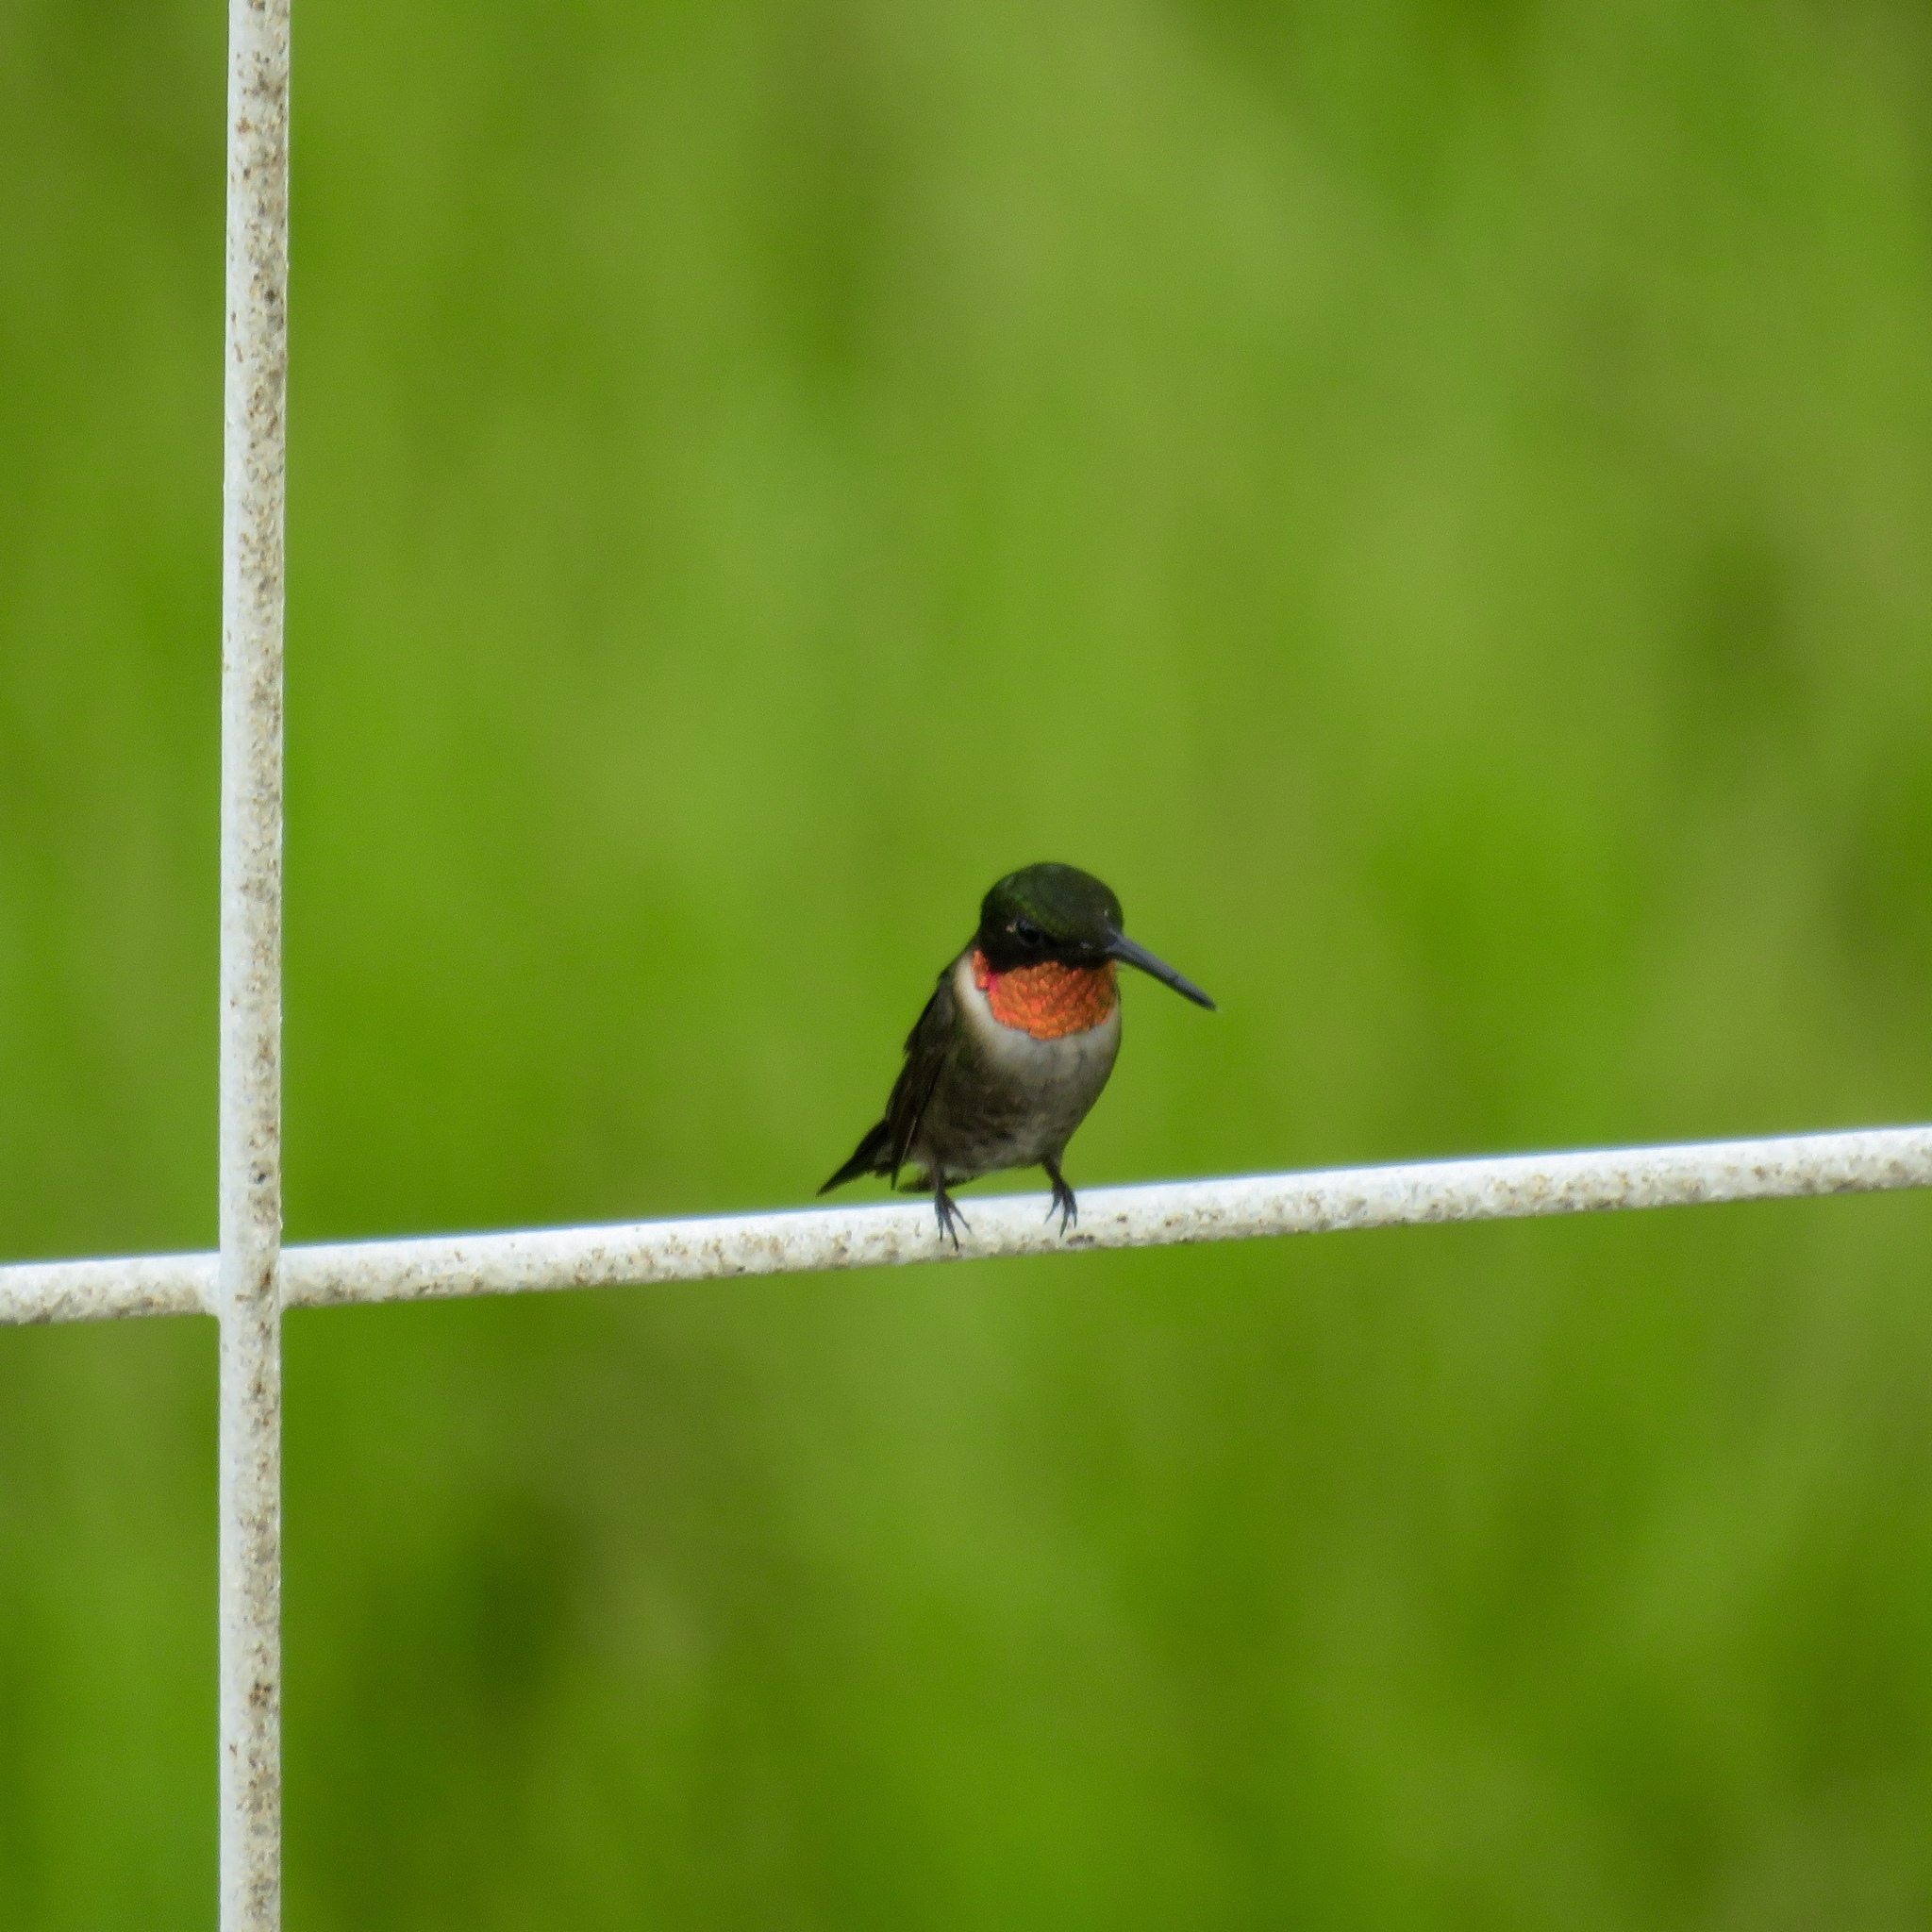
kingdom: Animalia
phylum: Chordata
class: Aves
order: Apodiformes
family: Trochilidae
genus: Archilochus
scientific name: Archilochus colubris
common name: Ruby-throated hummingbird
